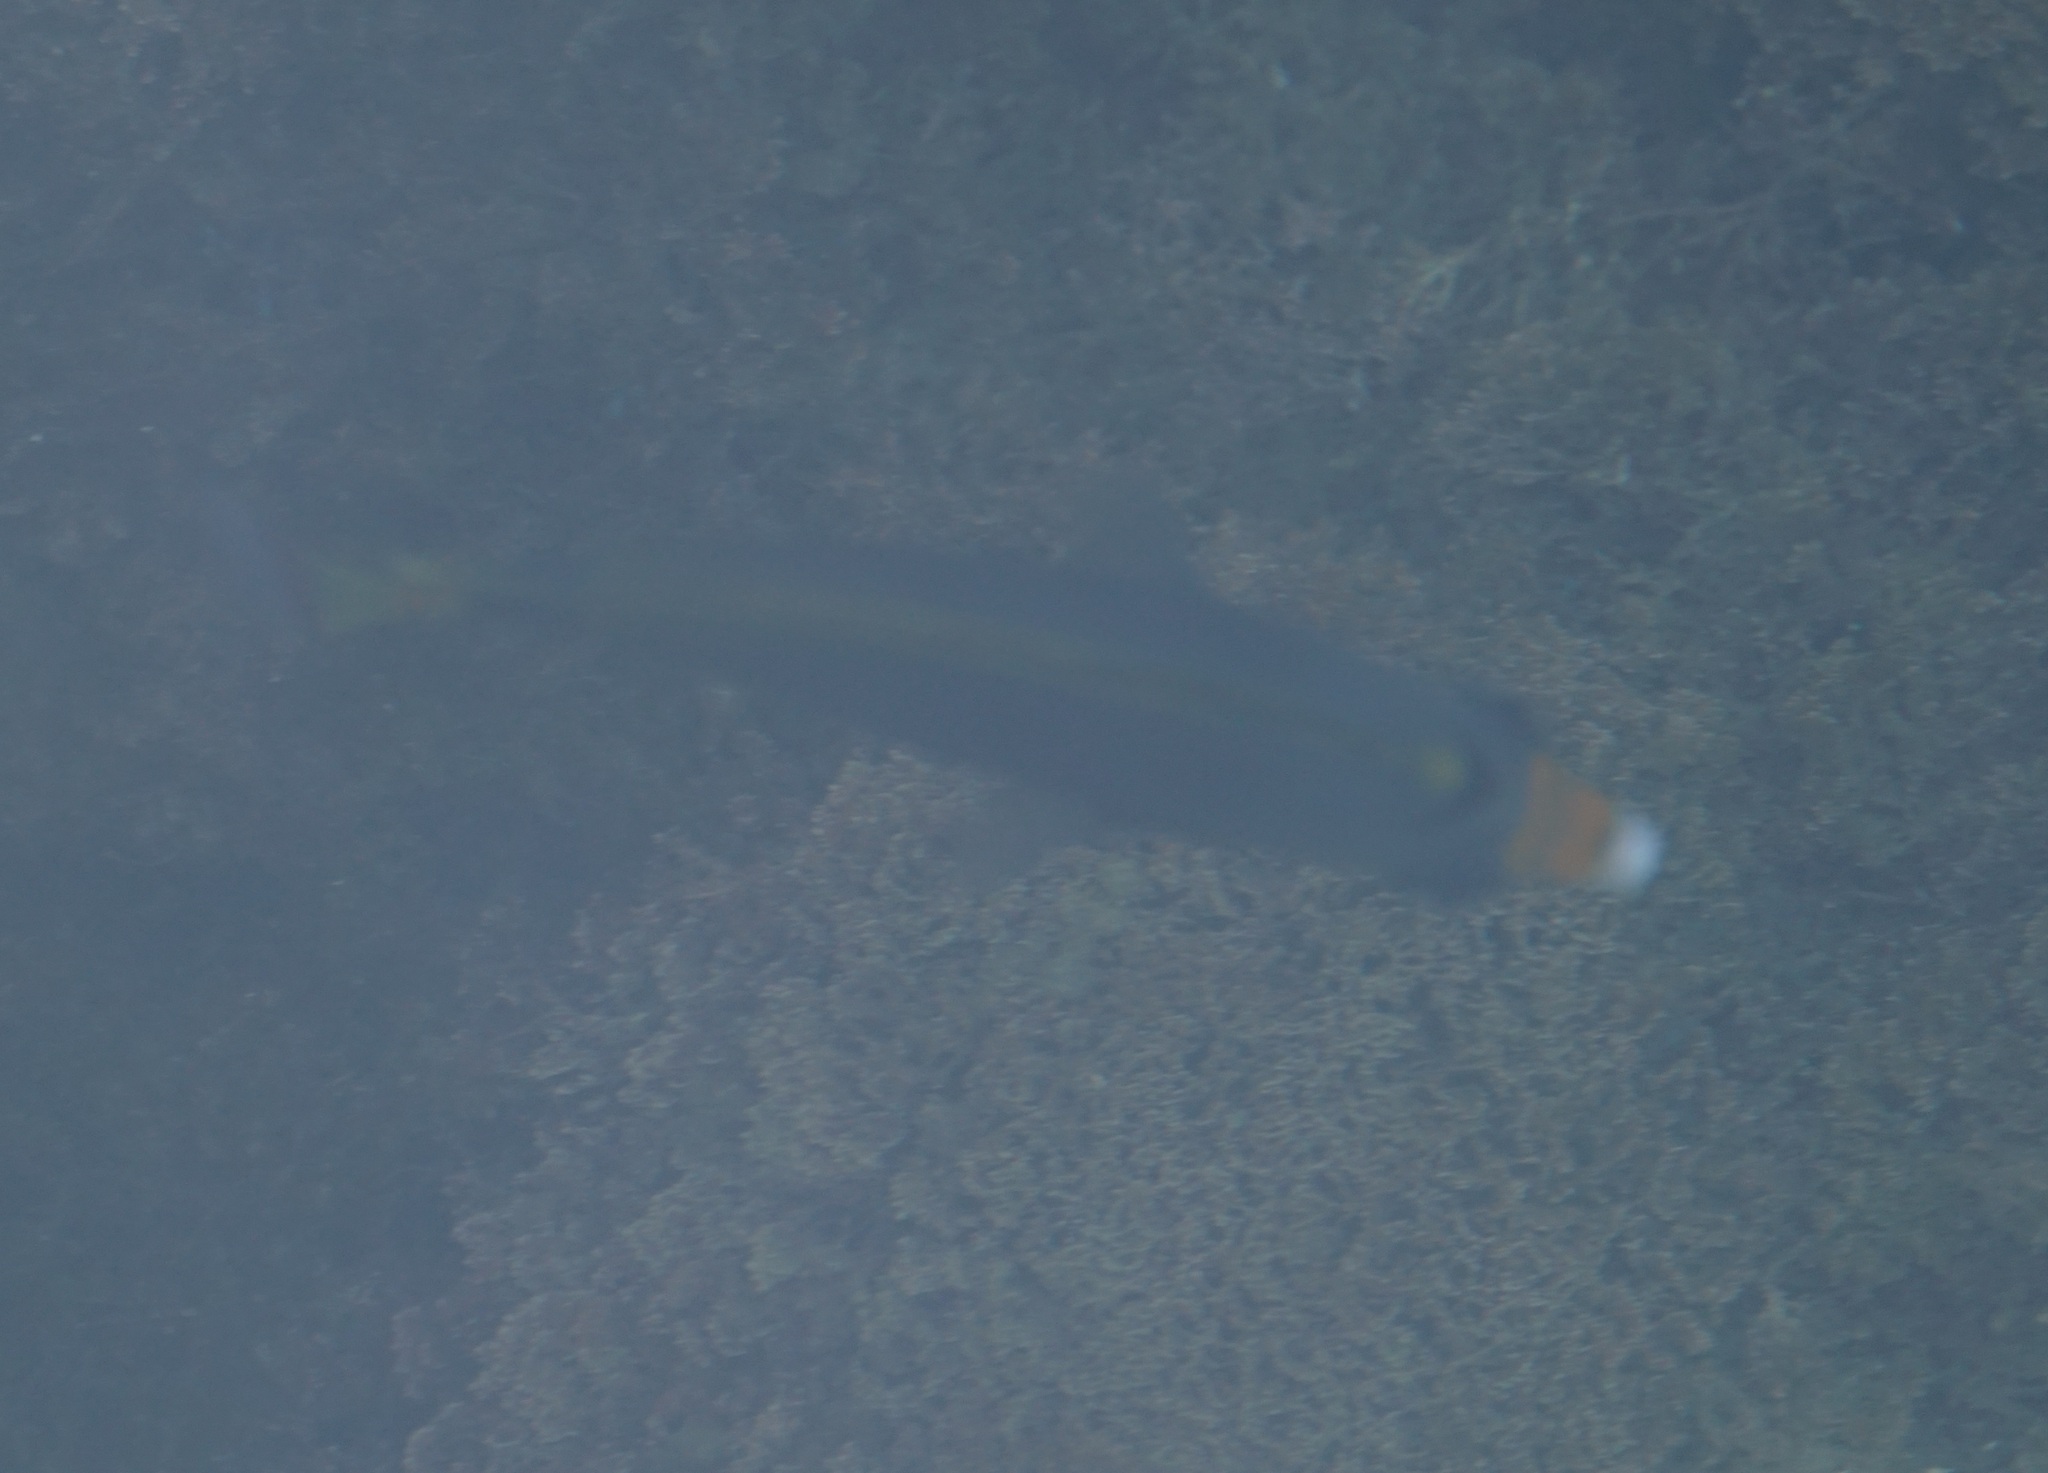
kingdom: Animalia
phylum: Chordata
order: Perciformes
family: Chaetodontidae
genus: Chaetodon
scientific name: Chaetodon flavirostris
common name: Black butterflyfish
